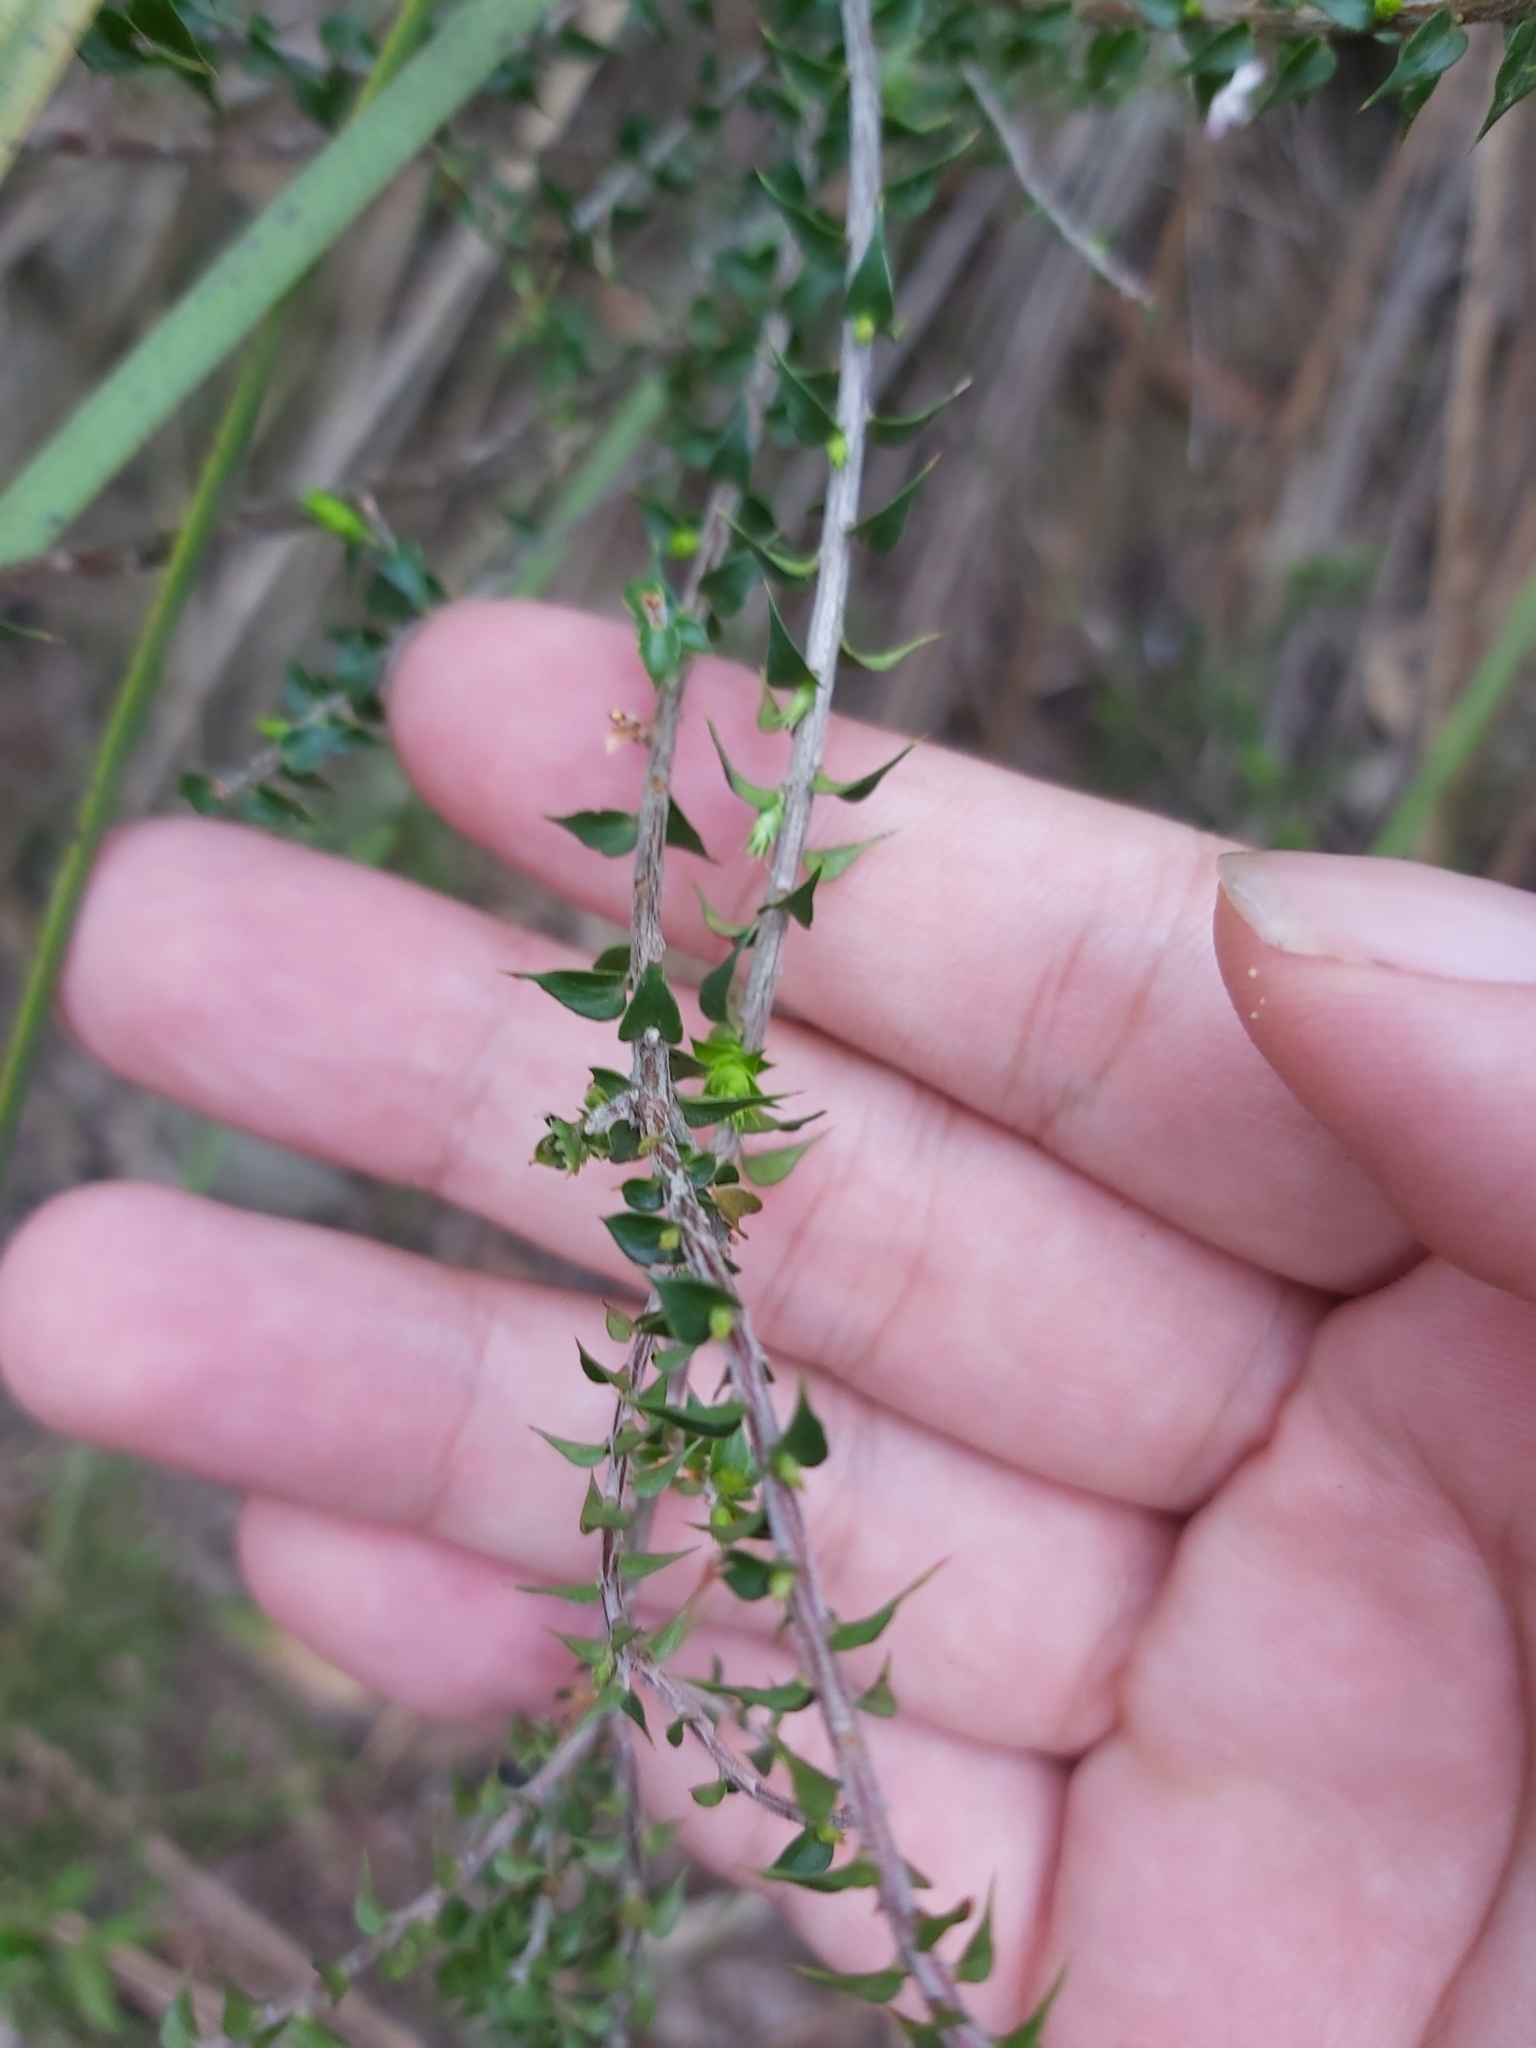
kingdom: Plantae
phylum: Tracheophyta
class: Magnoliopsida
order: Ericales
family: Ericaceae
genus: Epacris
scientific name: Epacris pulchella
